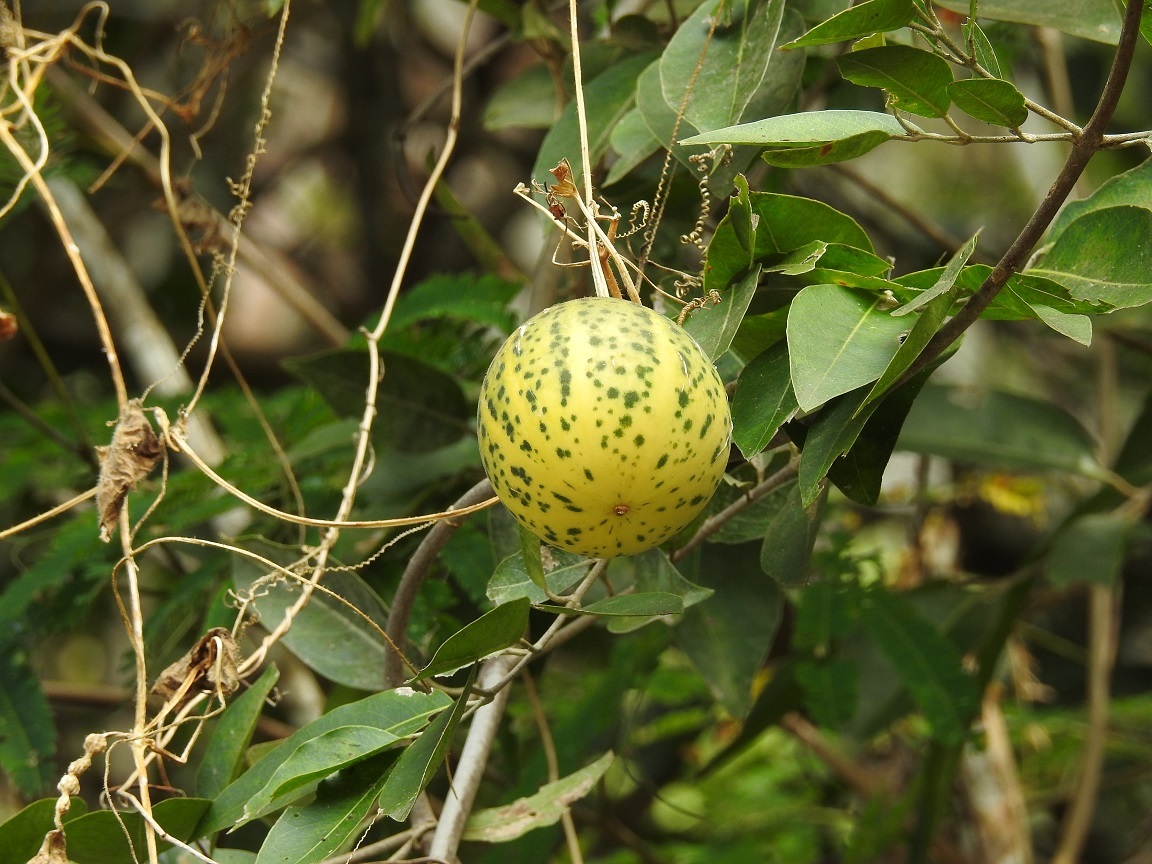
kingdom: Plantae
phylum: Tracheophyta
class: Magnoliopsida
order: Cucurbitales
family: Cucurbitaceae
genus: Polyclathra
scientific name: Polyclathra cucumerina
